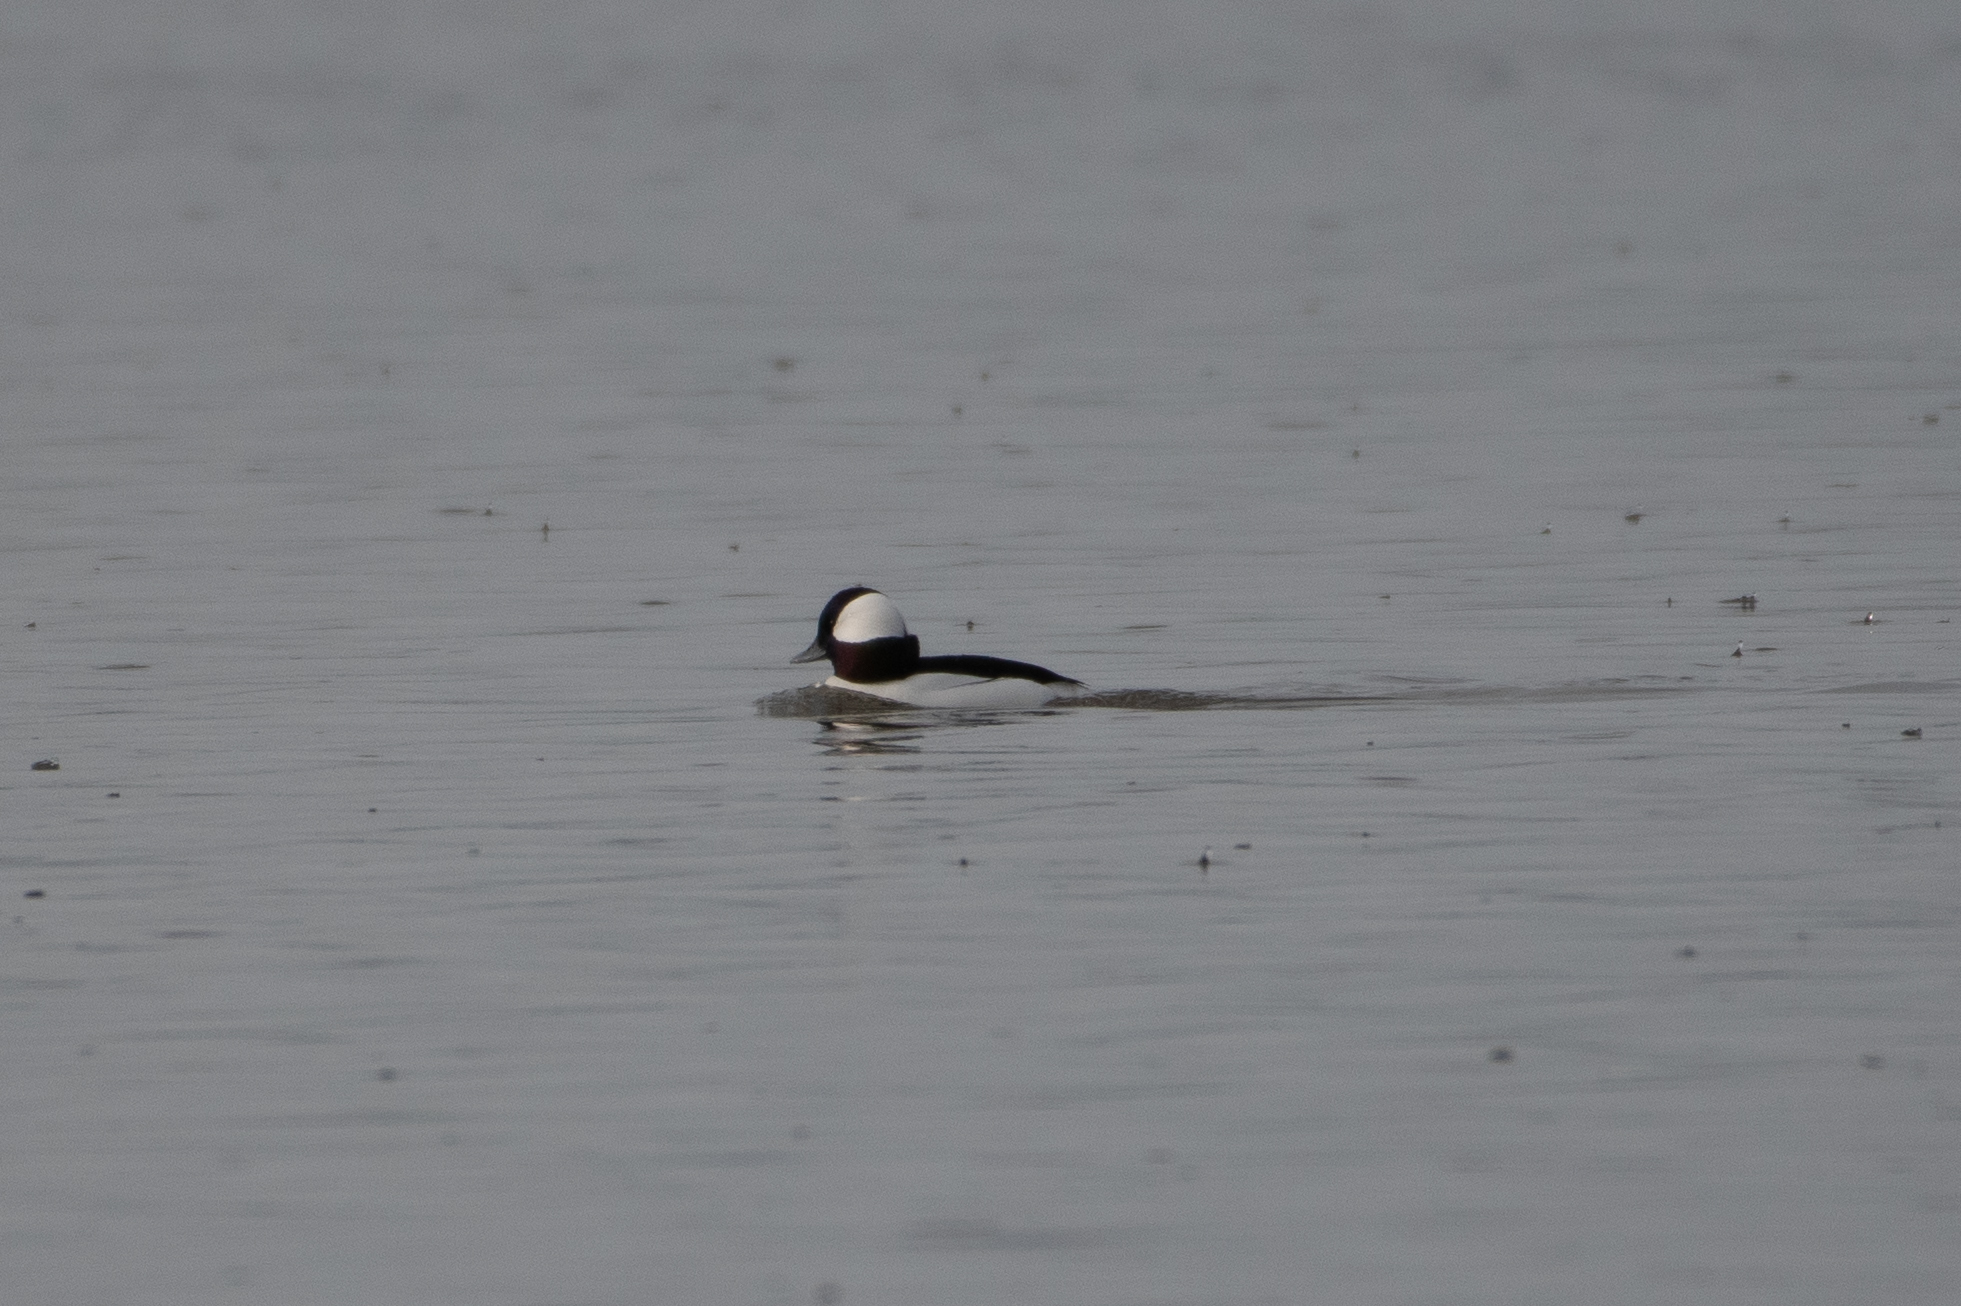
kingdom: Animalia
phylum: Chordata
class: Aves
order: Anseriformes
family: Anatidae
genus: Bucephala
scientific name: Bucephala albeola
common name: Bufflehead
